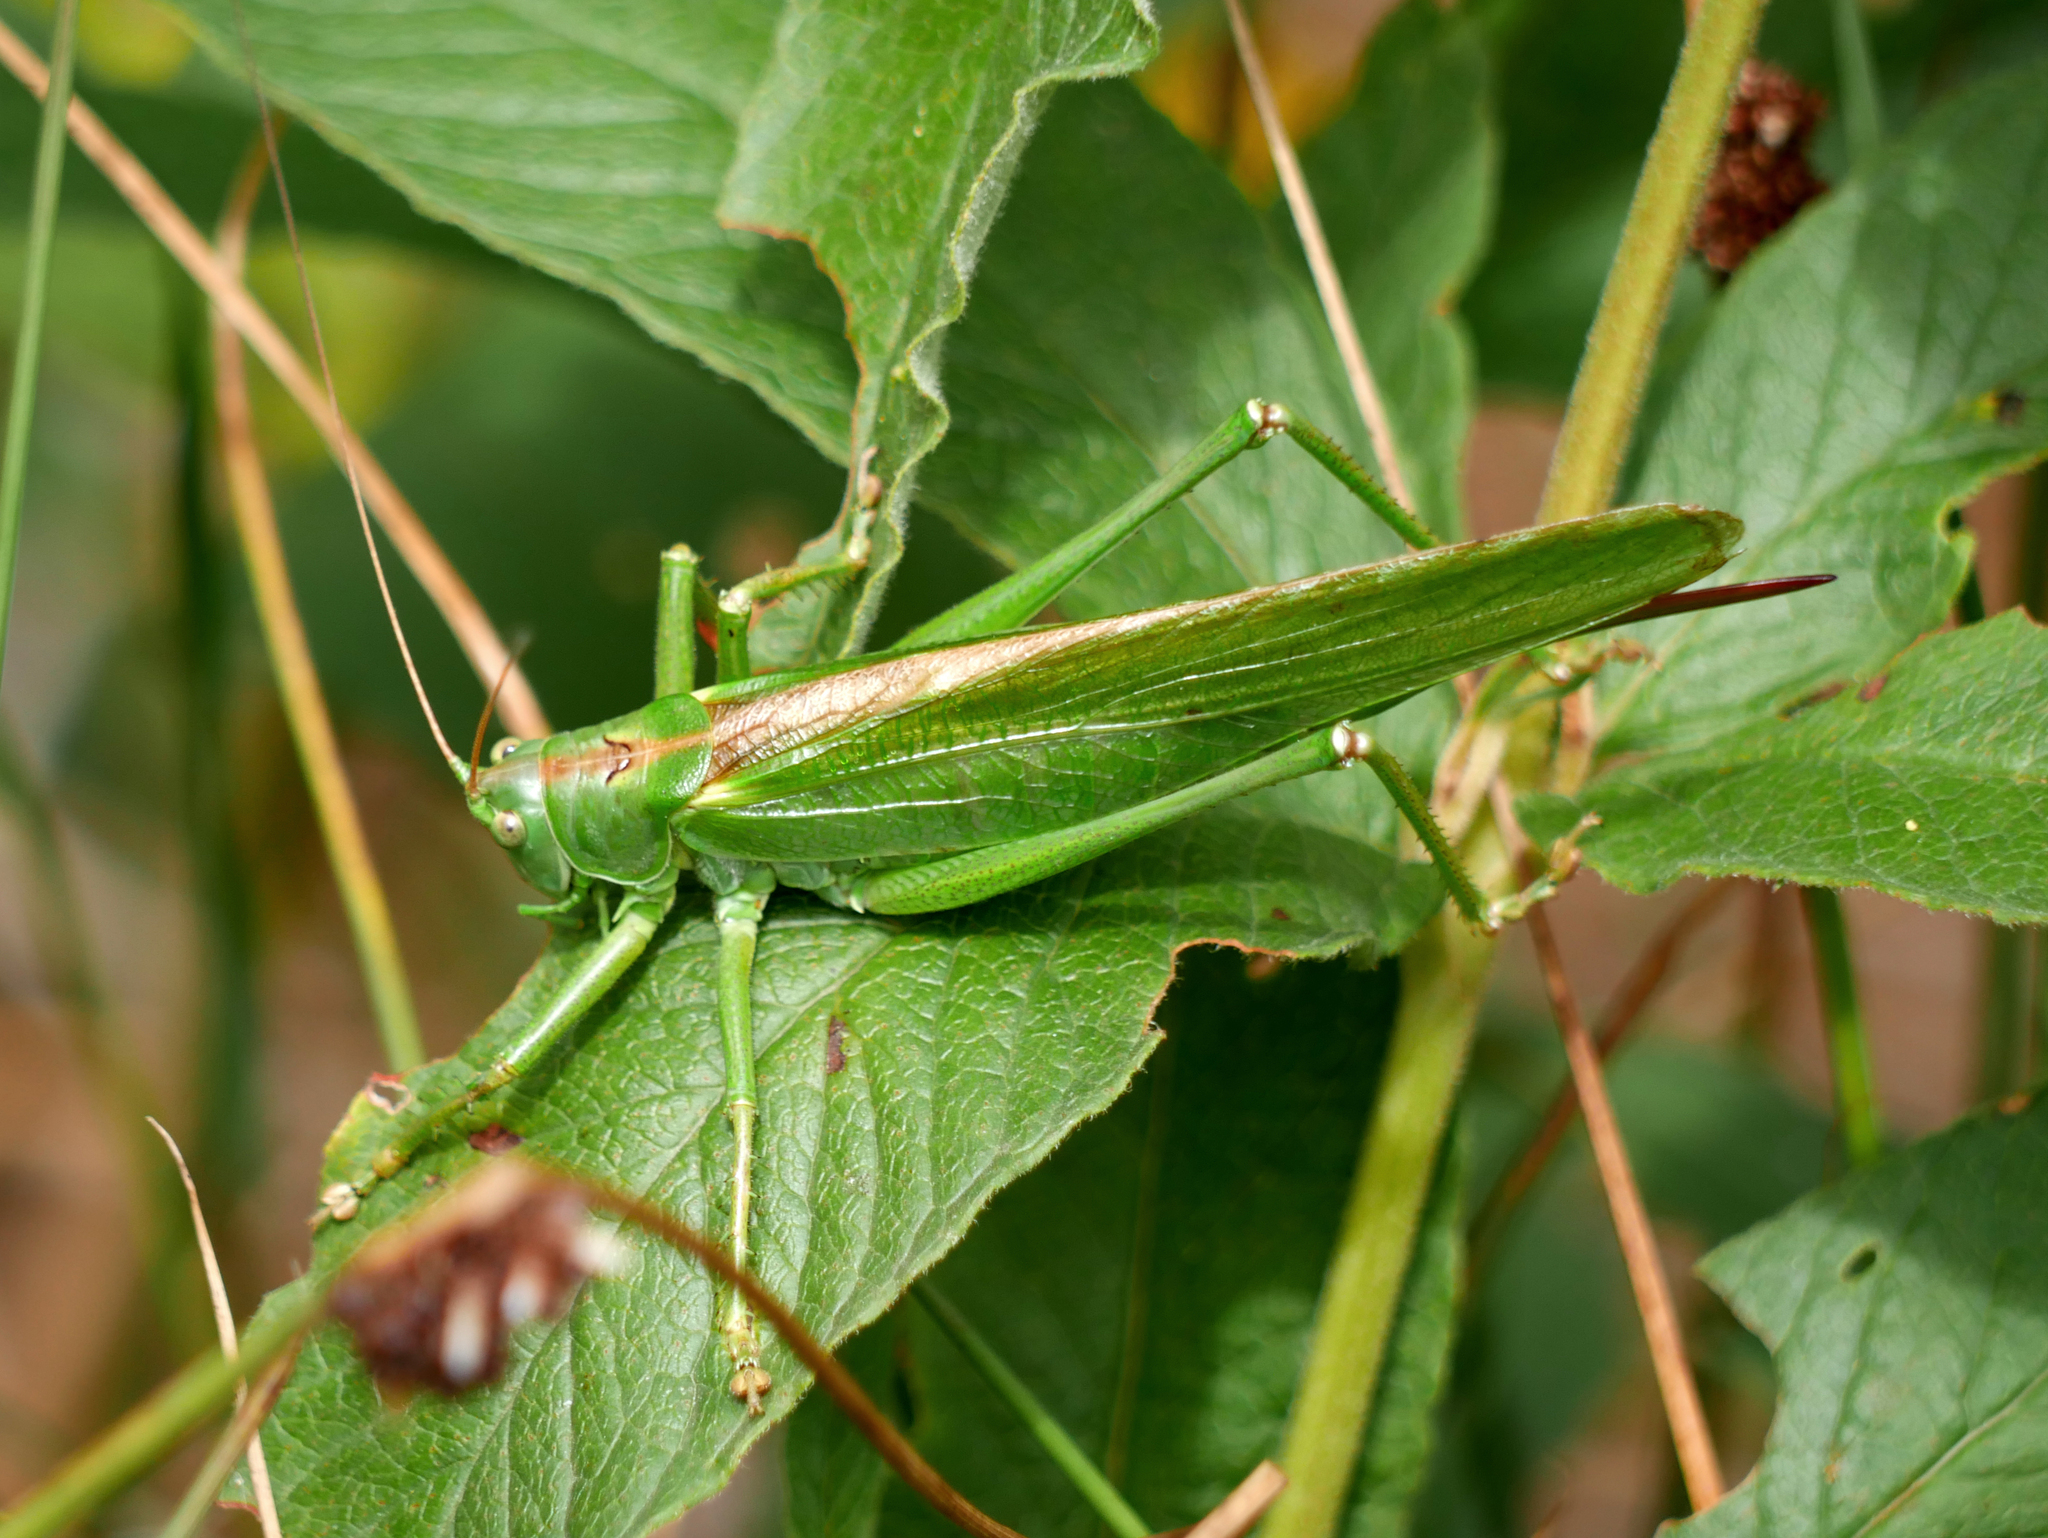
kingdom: Animalia
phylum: Arthropoda
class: Insecta
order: Orthoptera
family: Tettigoniidae
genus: Tettigonia
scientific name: Tettigonia viridissima
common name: Great green bush-cricket
